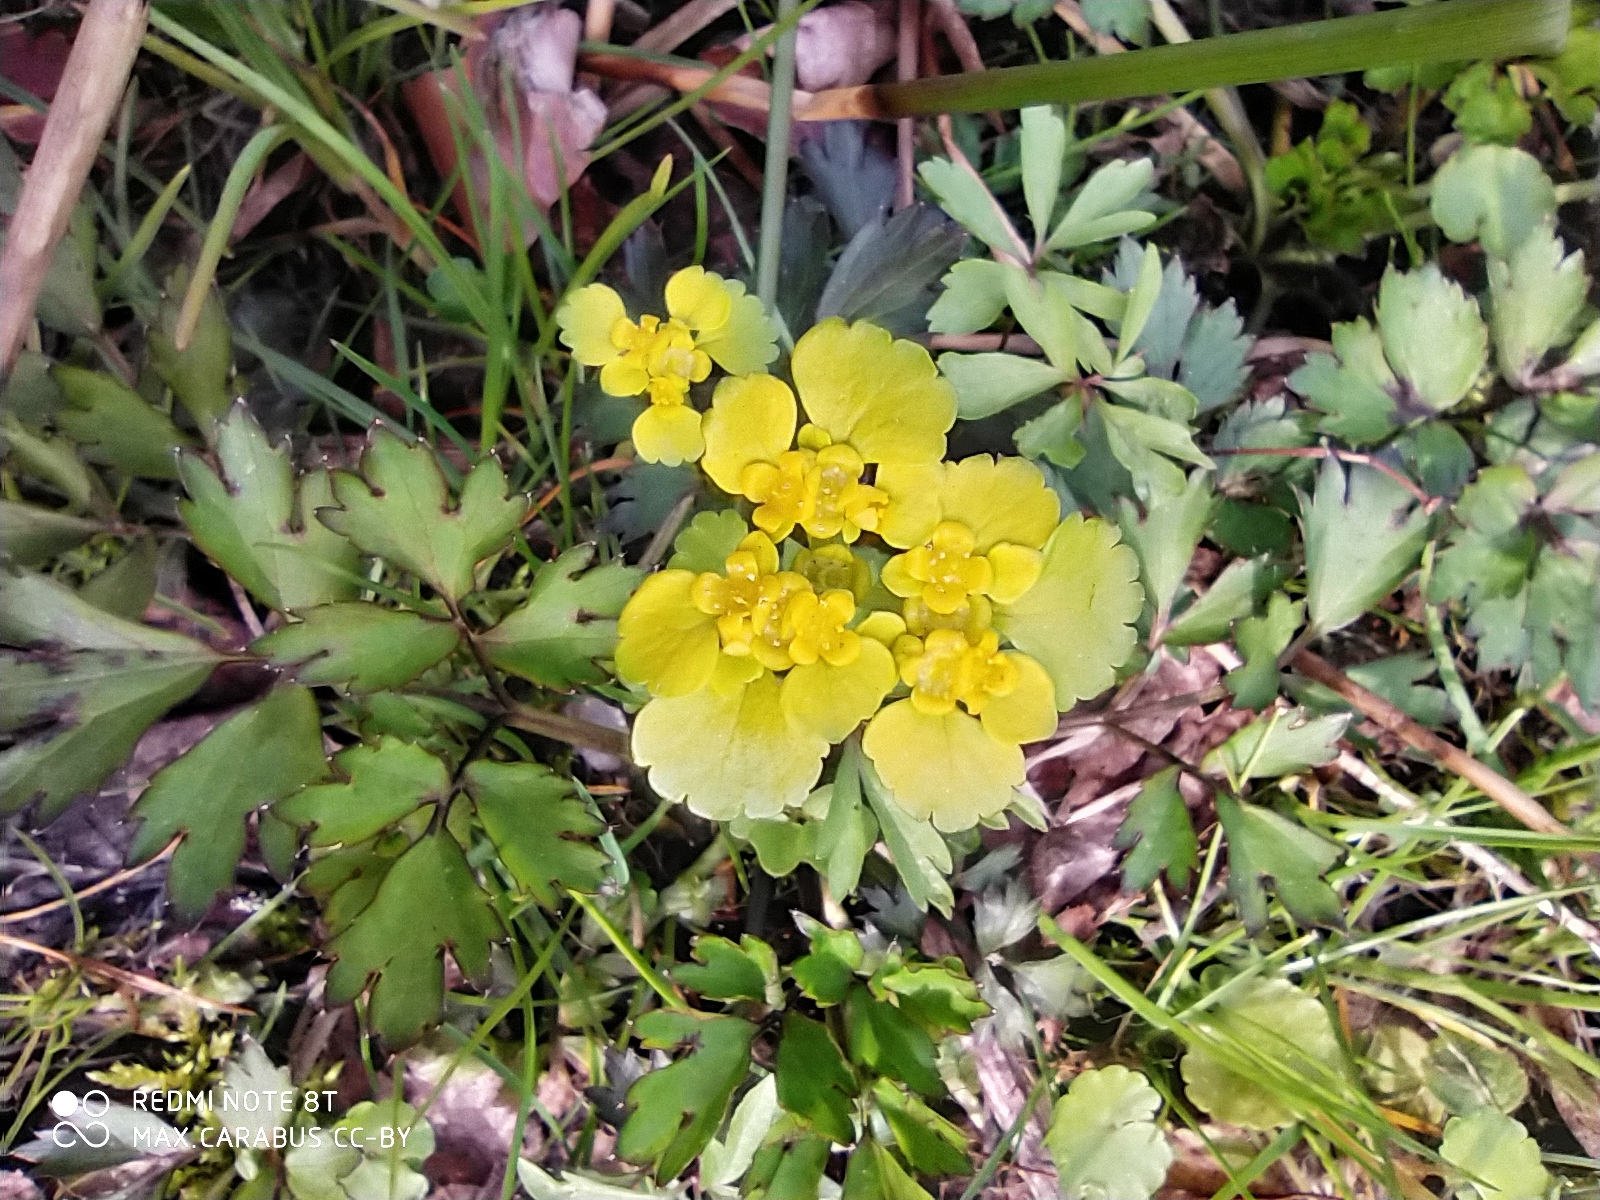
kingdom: Plantae
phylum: Tracheophyta
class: Magnoliopsida
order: Saxifragales
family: Saxifragaceae
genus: Chrysosplenium
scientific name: Chrysosplenium alternifolium
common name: Alternate-leaved golden-saxifrage
